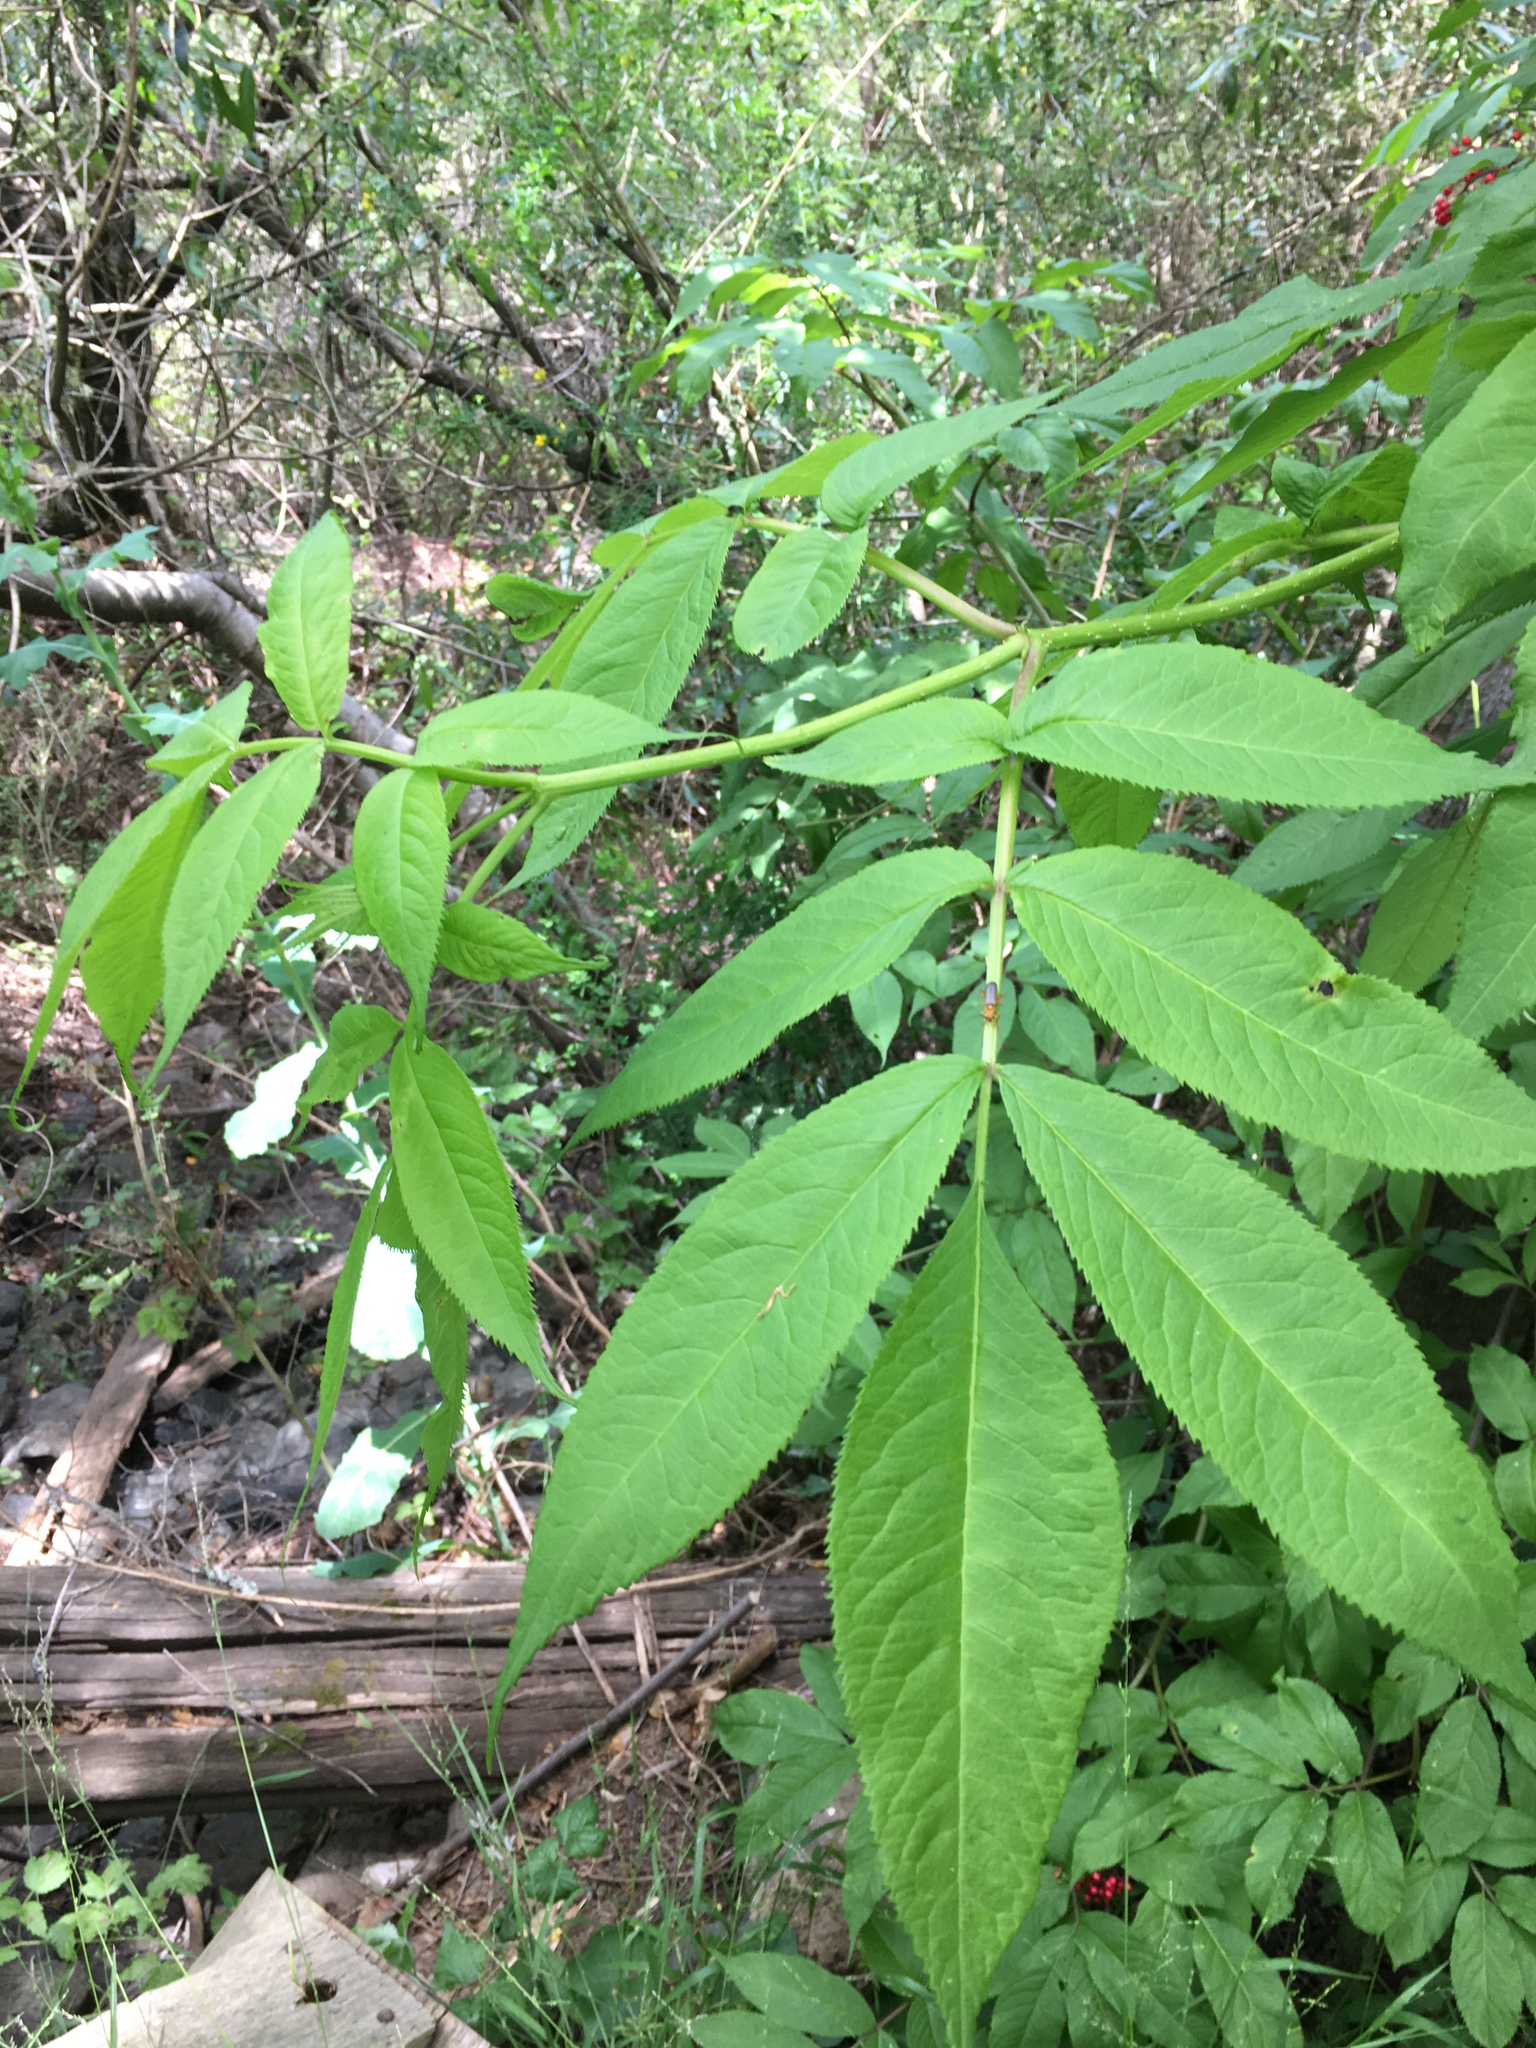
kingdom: Plantae
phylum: Tracheophyta
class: Magnoliopsida
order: Dipsacales
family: Viburnaceae
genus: Sambucus
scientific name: Sambucus racemosa
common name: Red-berried elder
